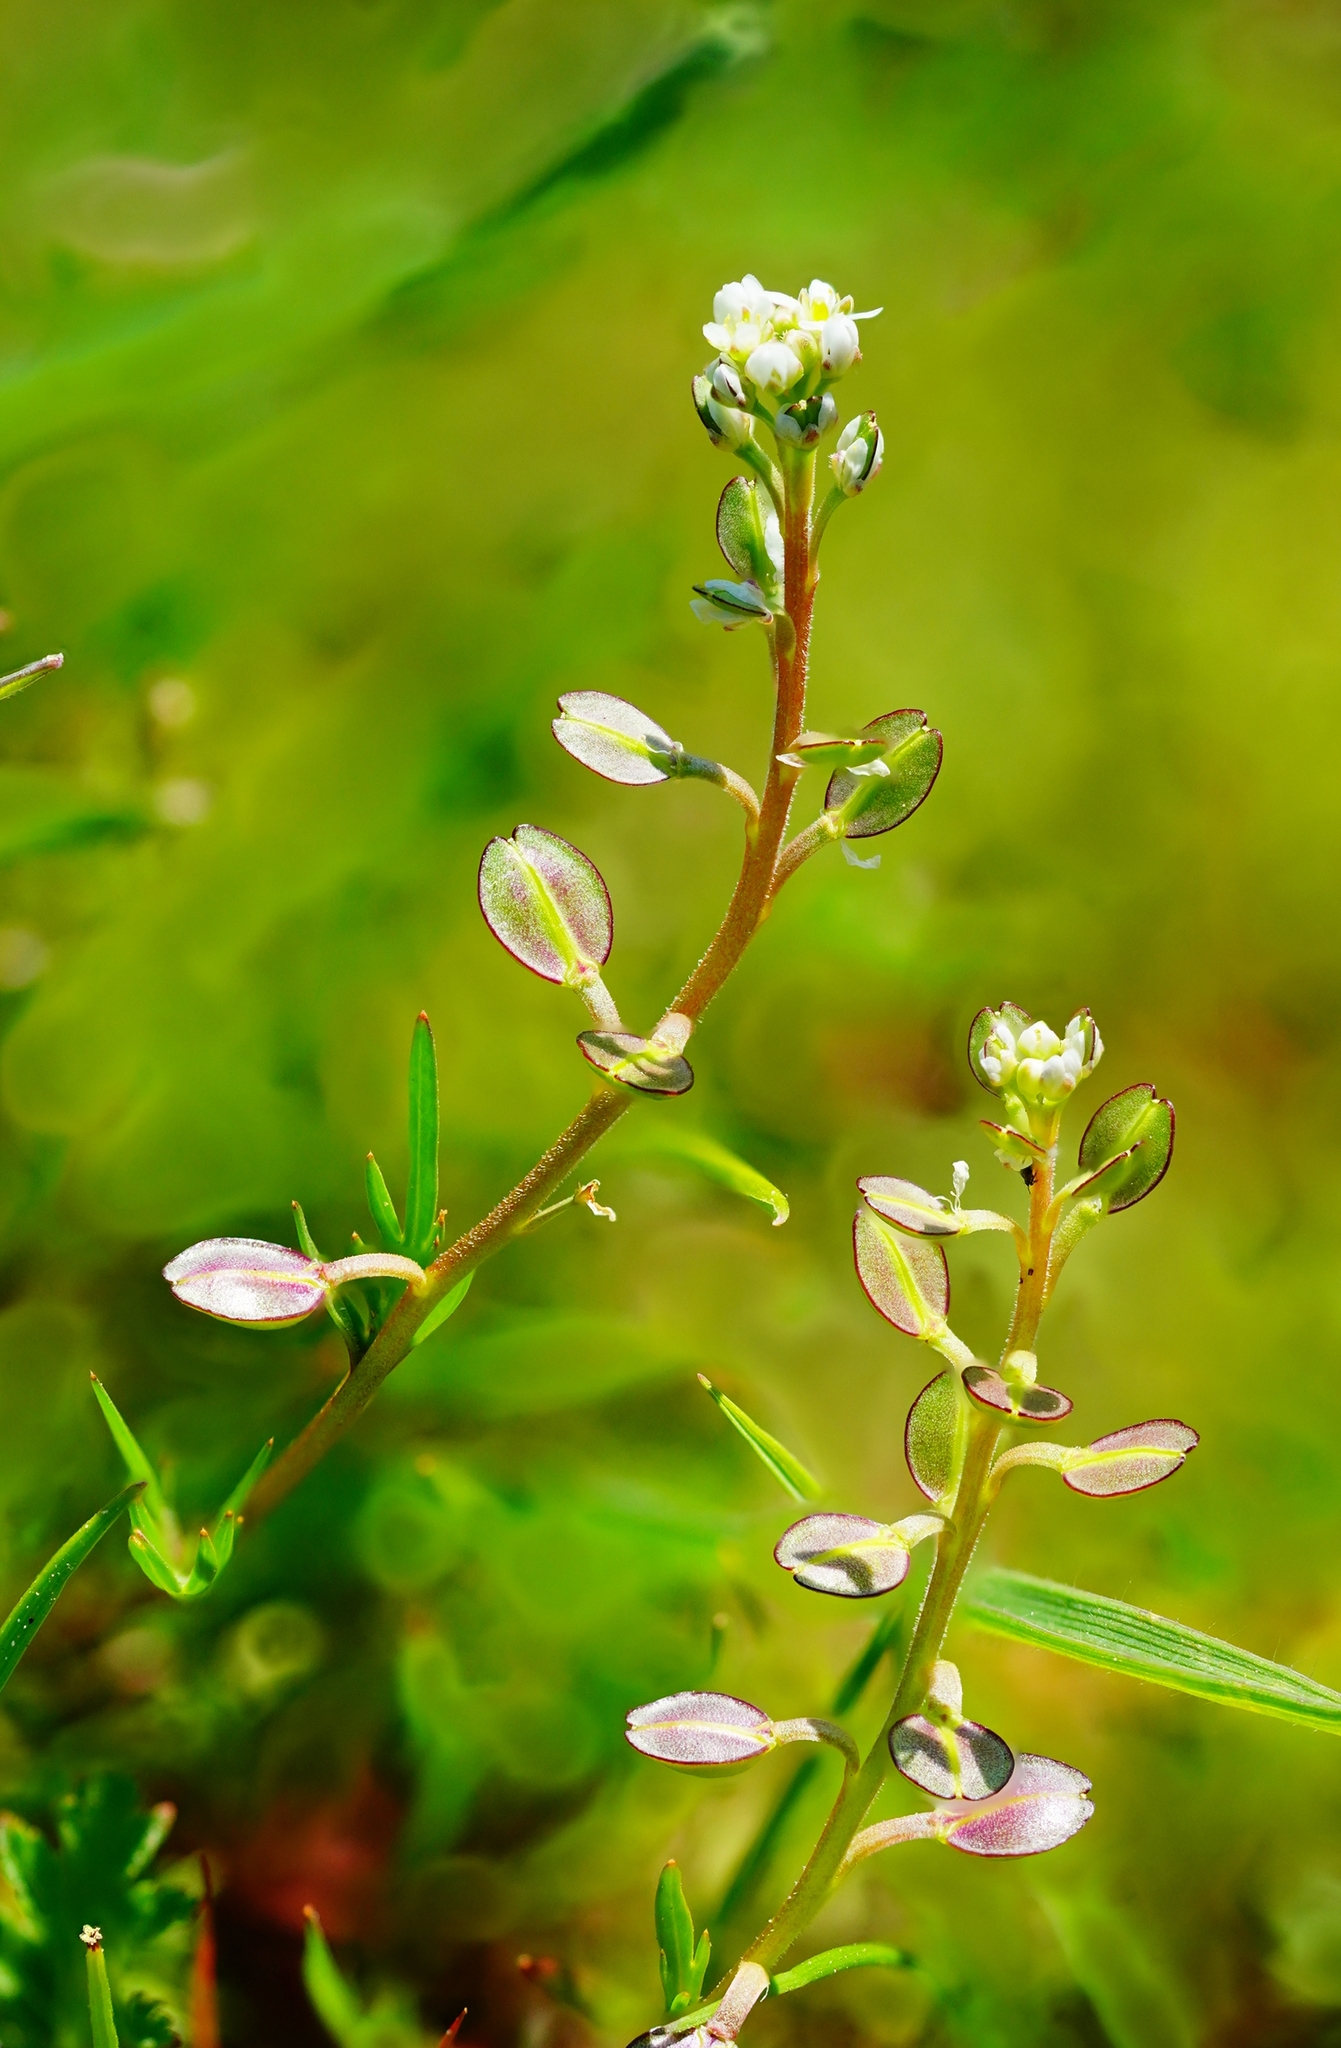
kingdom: Plantae
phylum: Tracheophyta
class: Magnoliopsida
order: Brassicales
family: Brassicaceae
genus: Lepidium
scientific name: Lepidium nitidum
